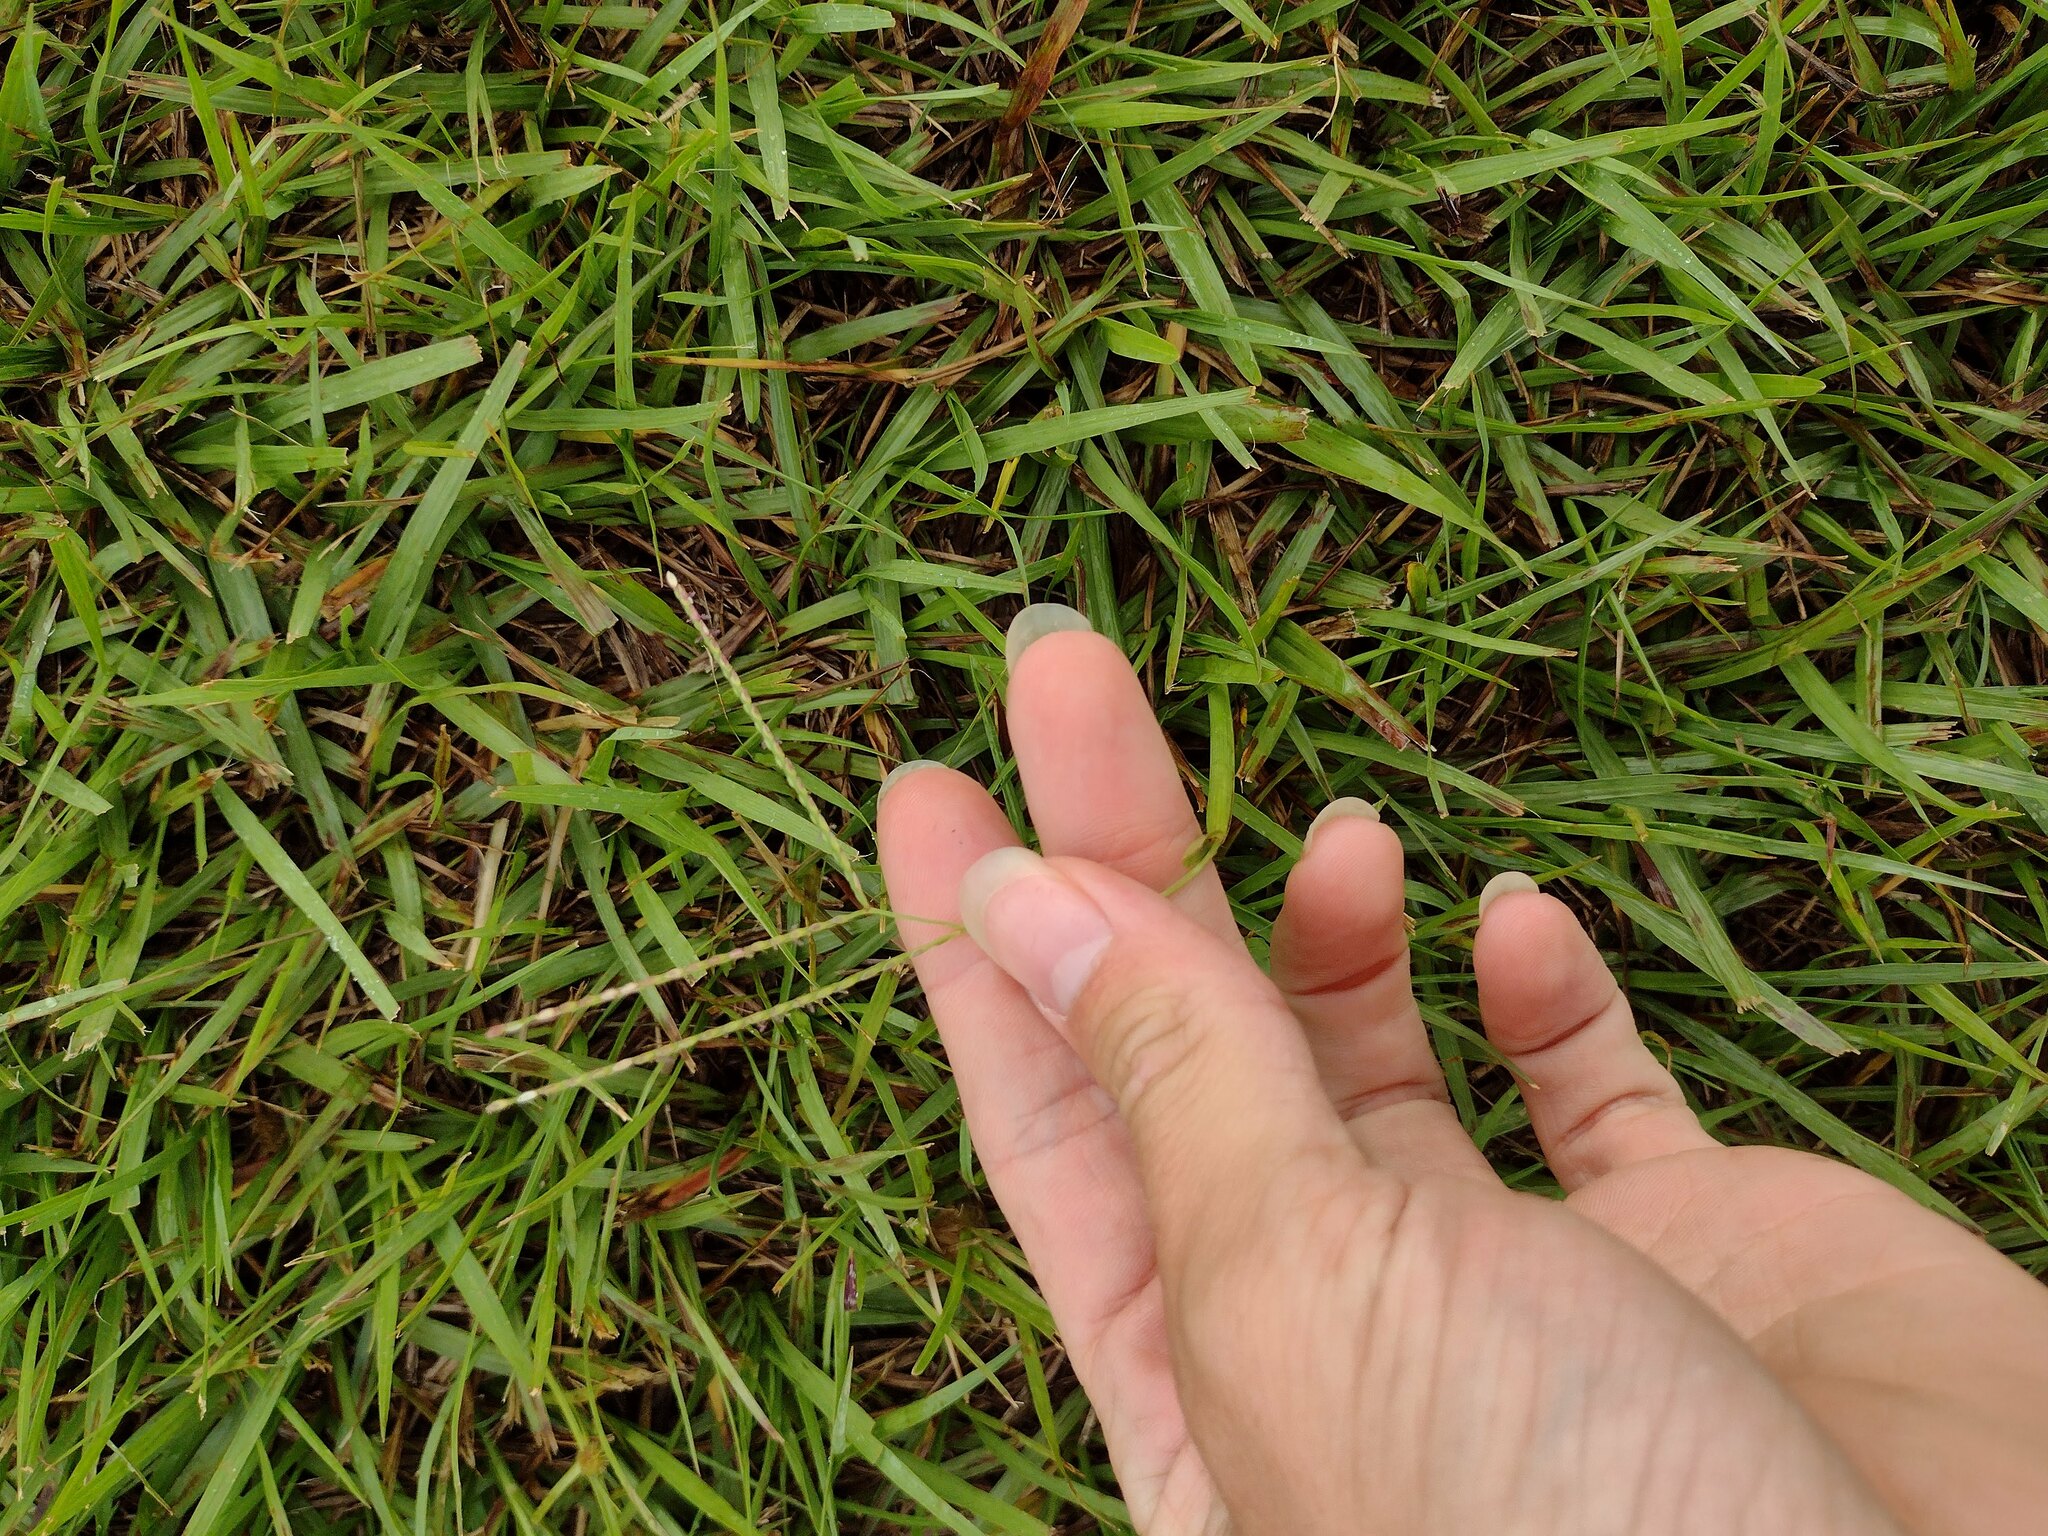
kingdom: Plantae
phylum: Tracheophyta
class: Liliopsida
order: Poales
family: Poaceae
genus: Axonopus
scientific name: Axonopus fissifolius
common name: Common carpetgrass
